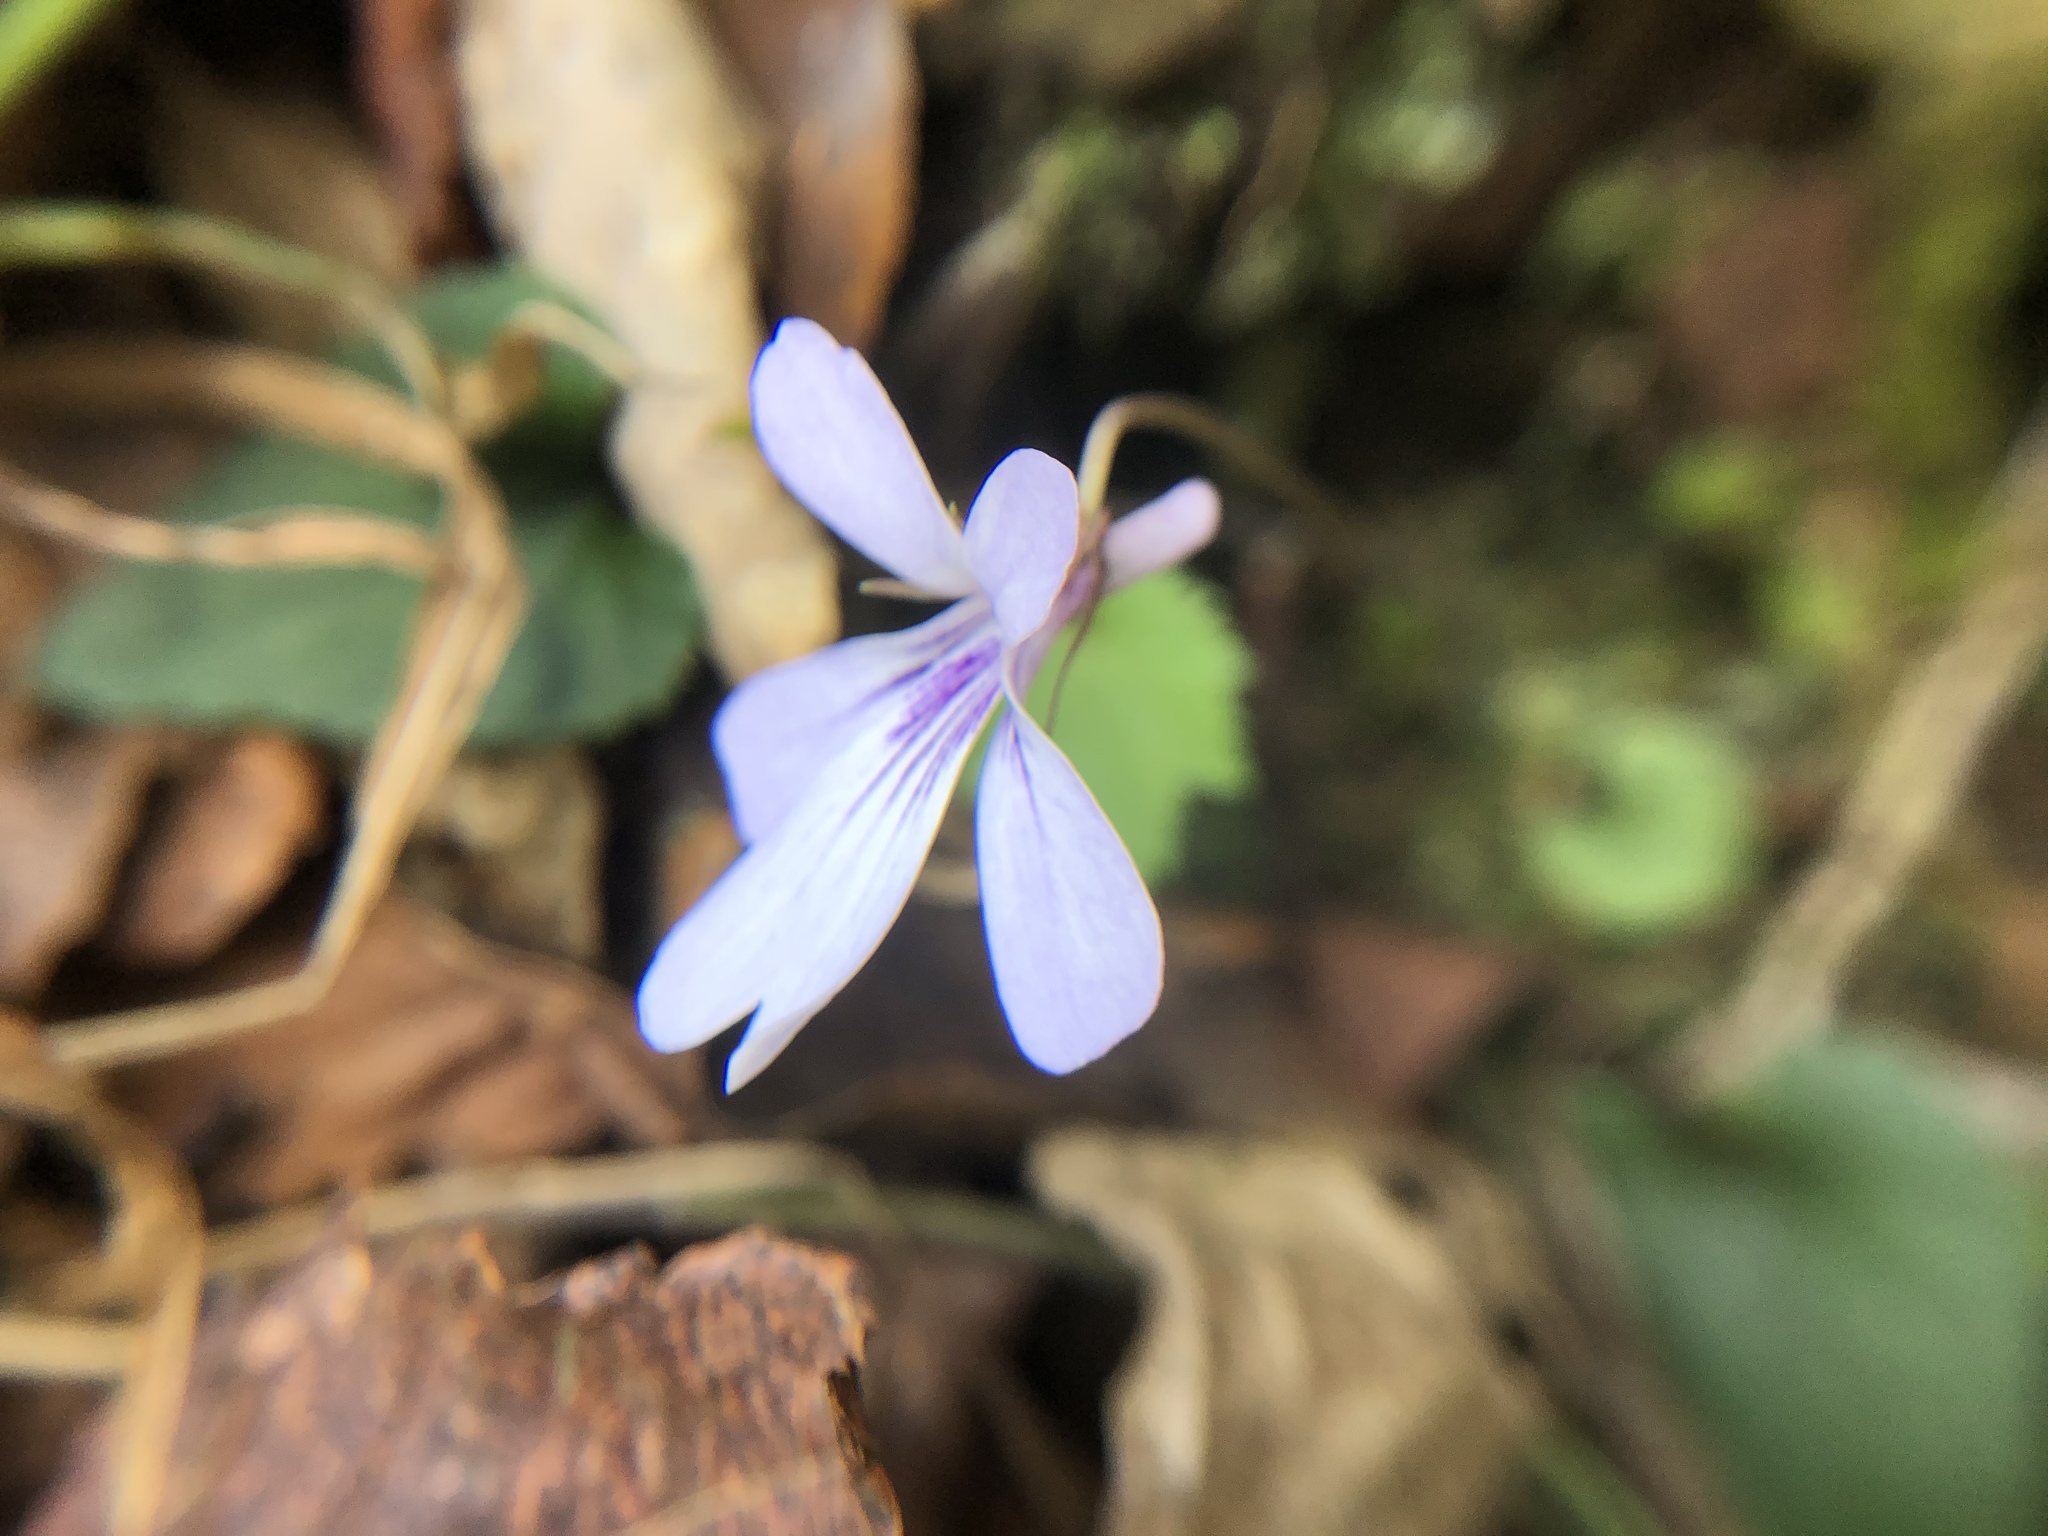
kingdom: Plantae
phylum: Tracheophyta
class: Magnoliopsida
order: Malpighiales
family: Violaceae
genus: Viola
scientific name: Viola formosana
